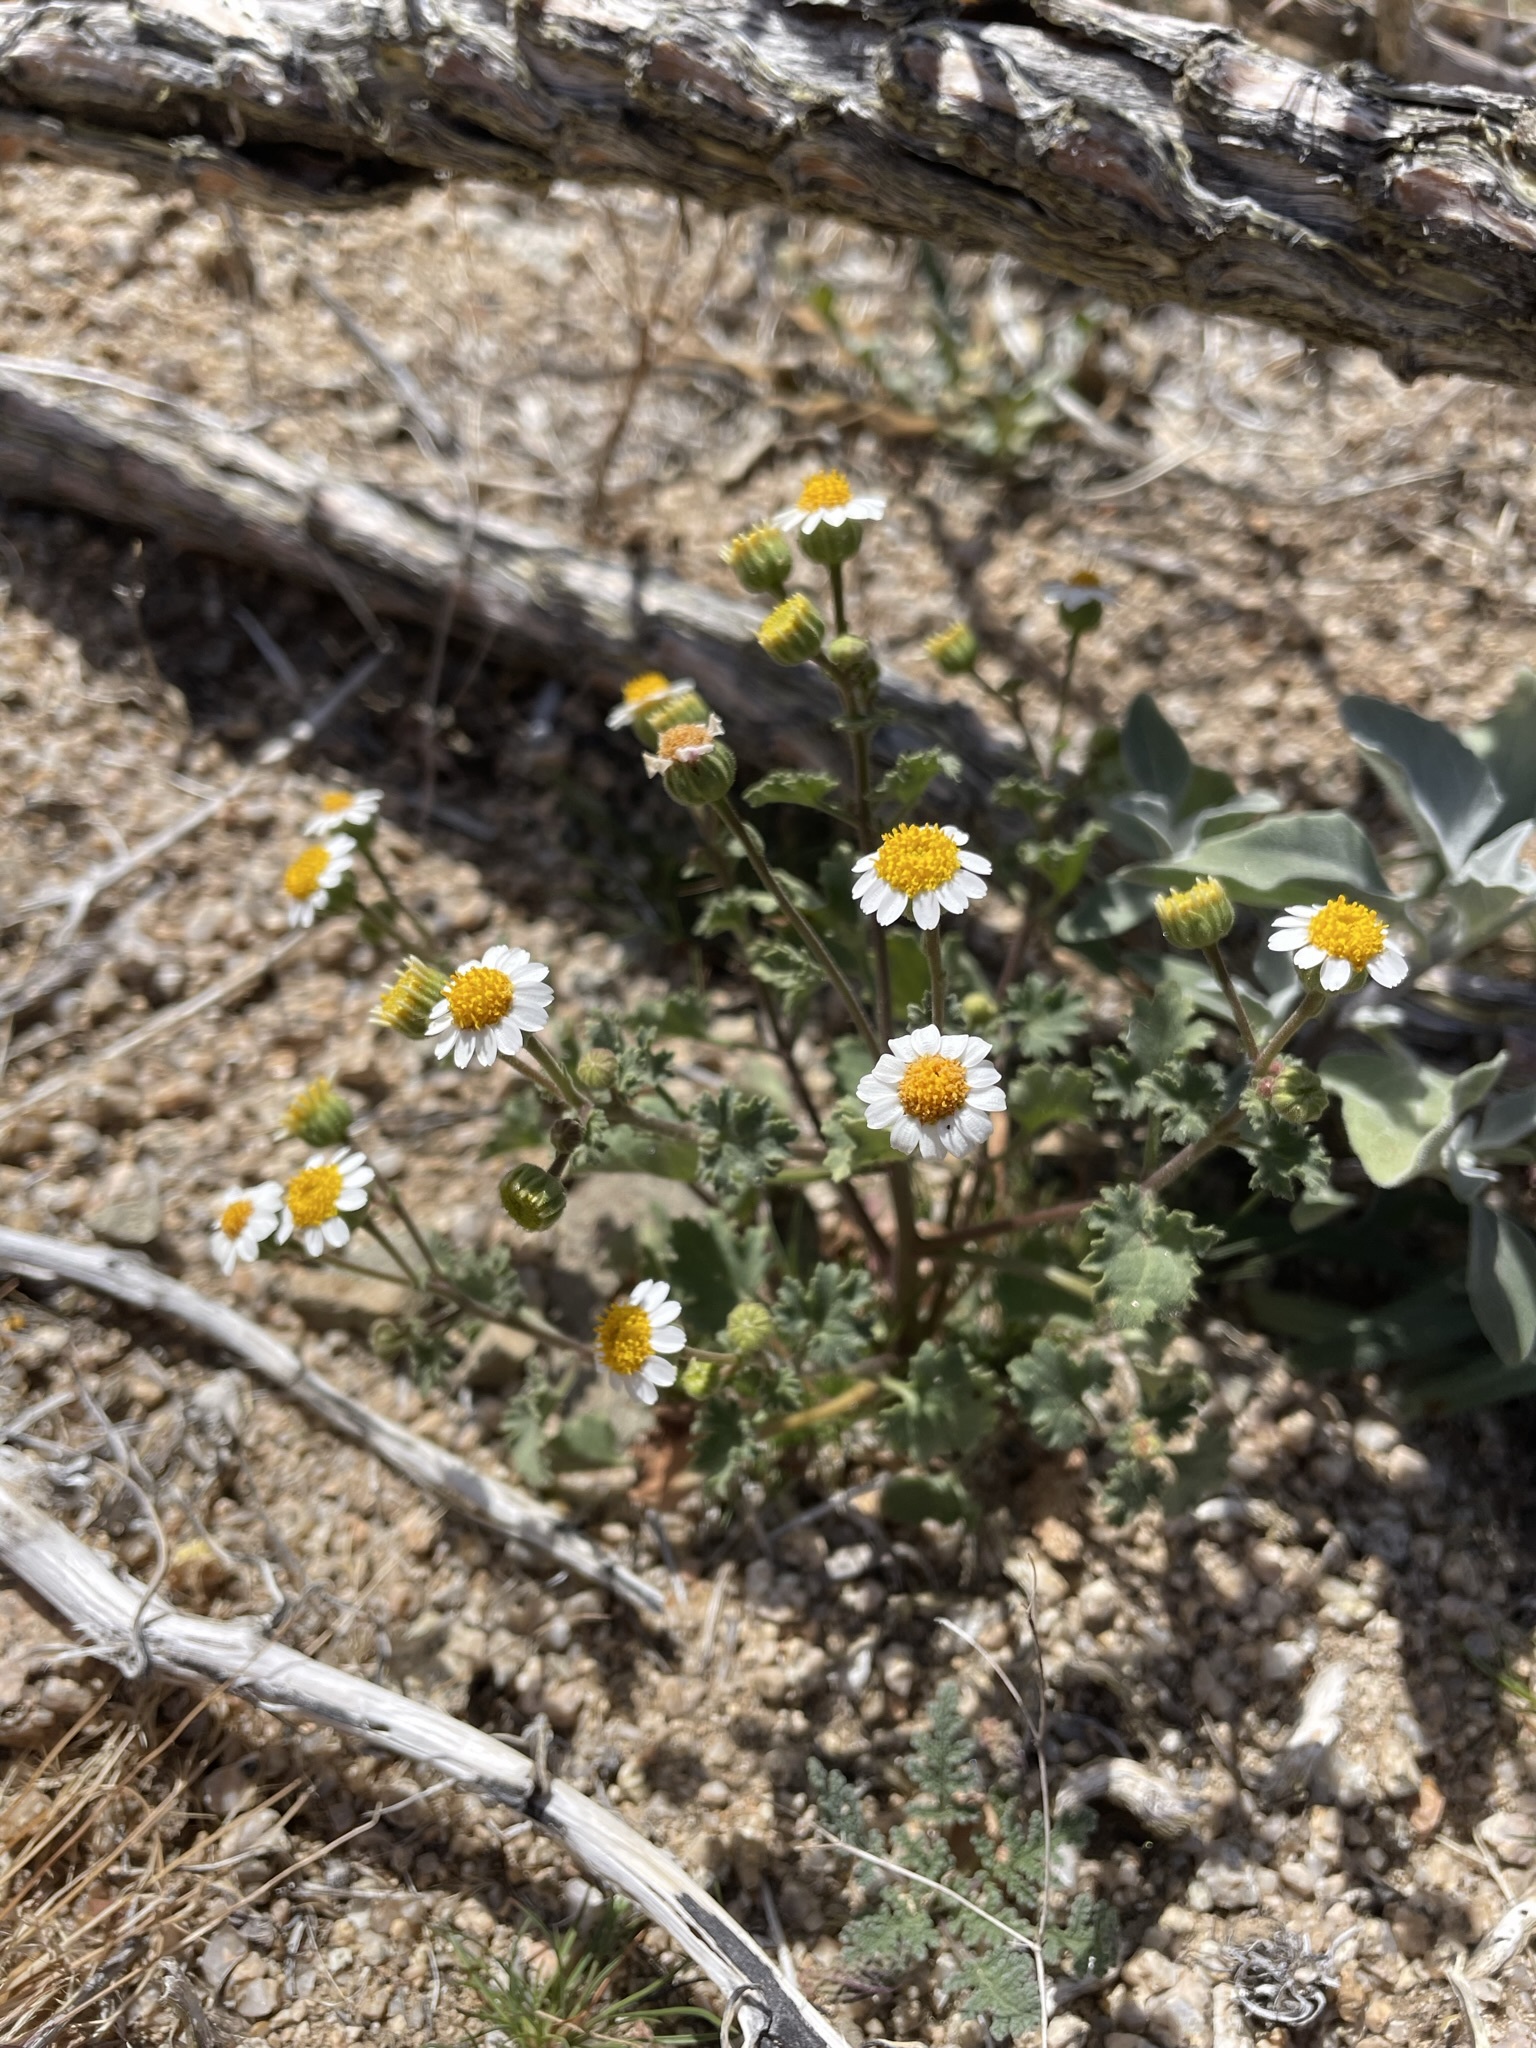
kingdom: Plantae
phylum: Tracheophyta
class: Magnoliopsida
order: Asterales
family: Asteraceae
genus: Laphamia
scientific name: Laphamia emoryi
